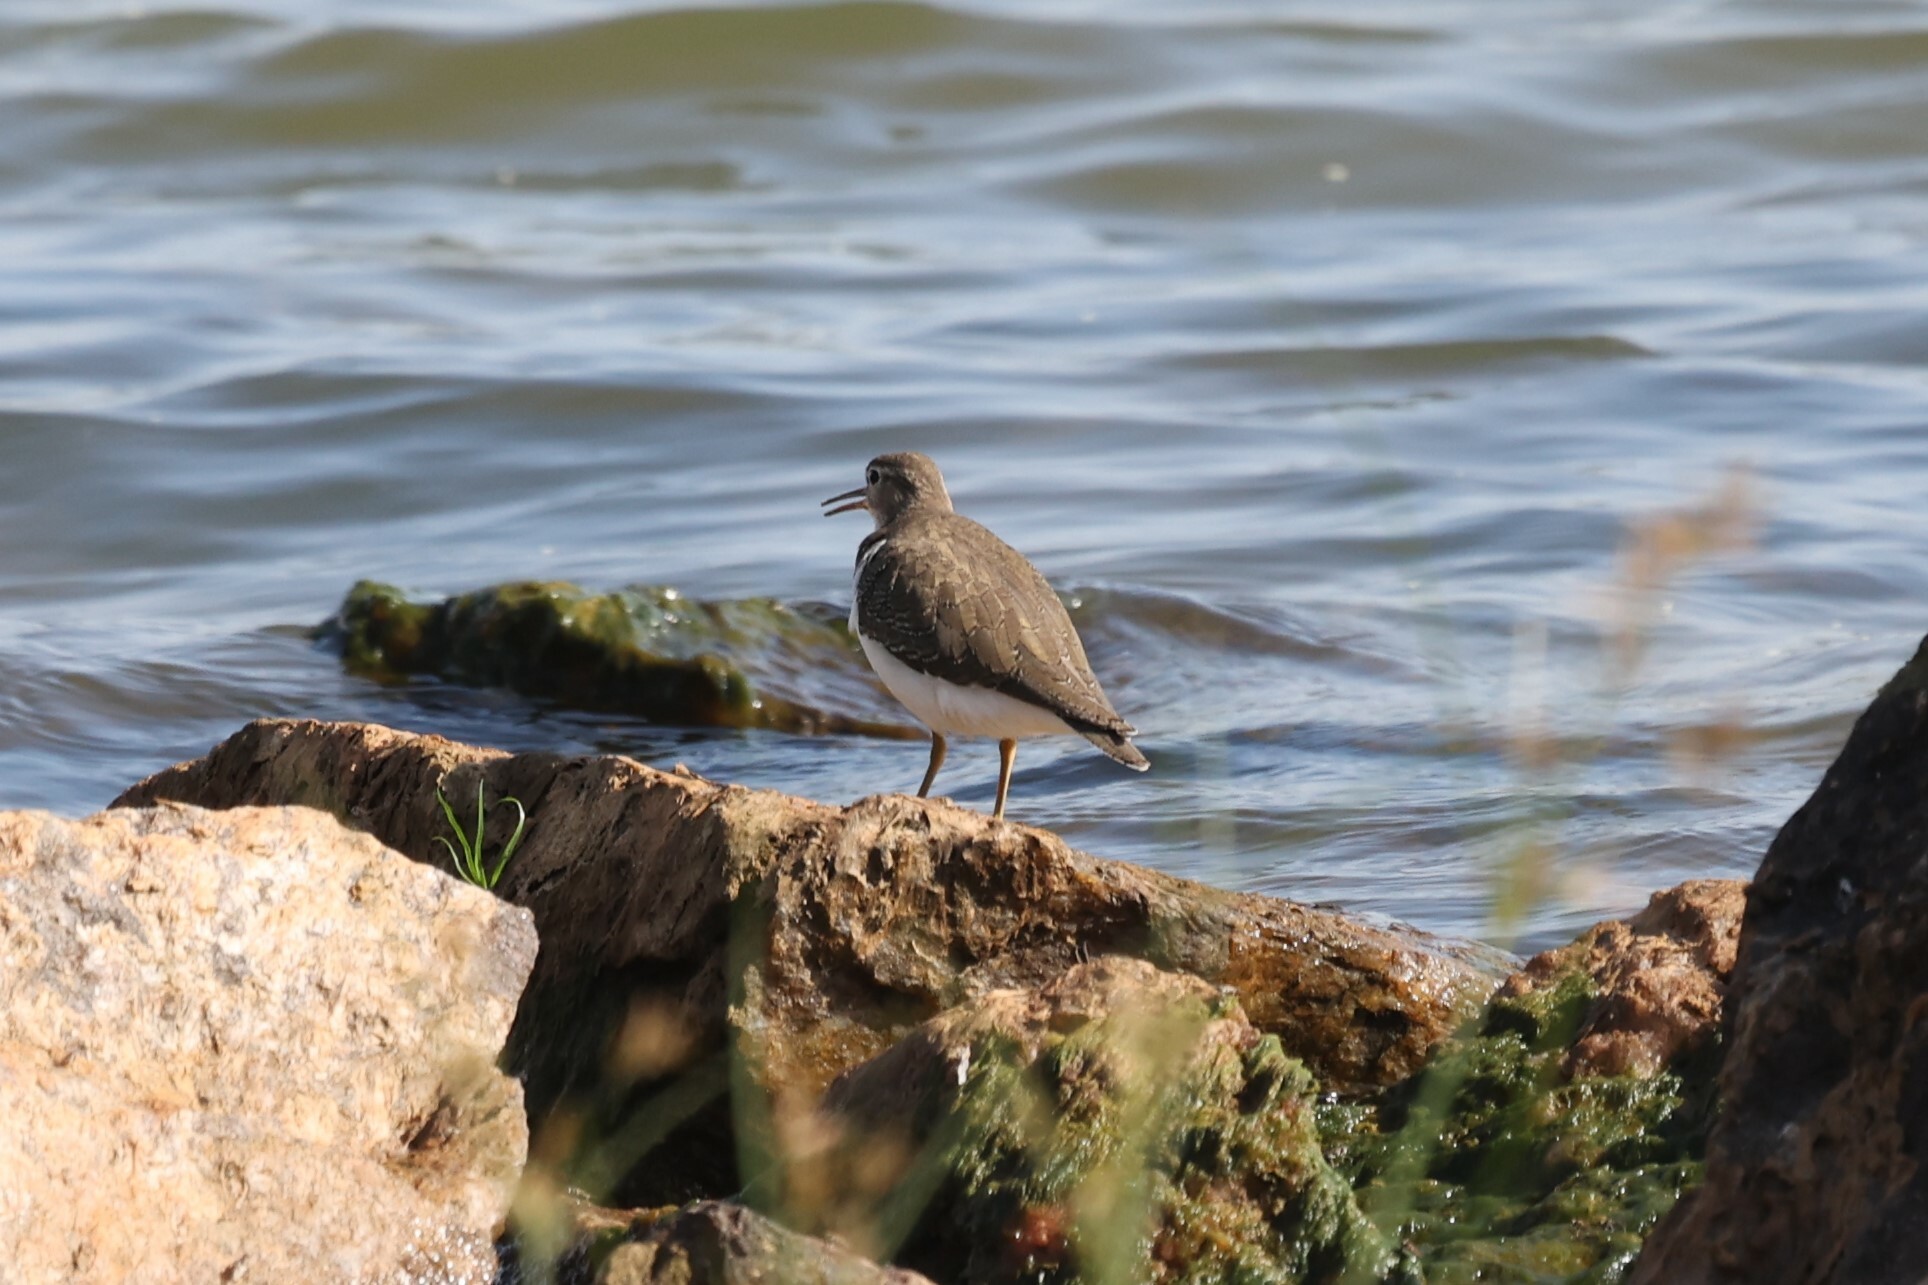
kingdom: Animalia
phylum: Chordata
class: Aves
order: Charadriiformes
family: Scolopacidae
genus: Actitis
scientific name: Actitis hypoleucos
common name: Common sandpiper
